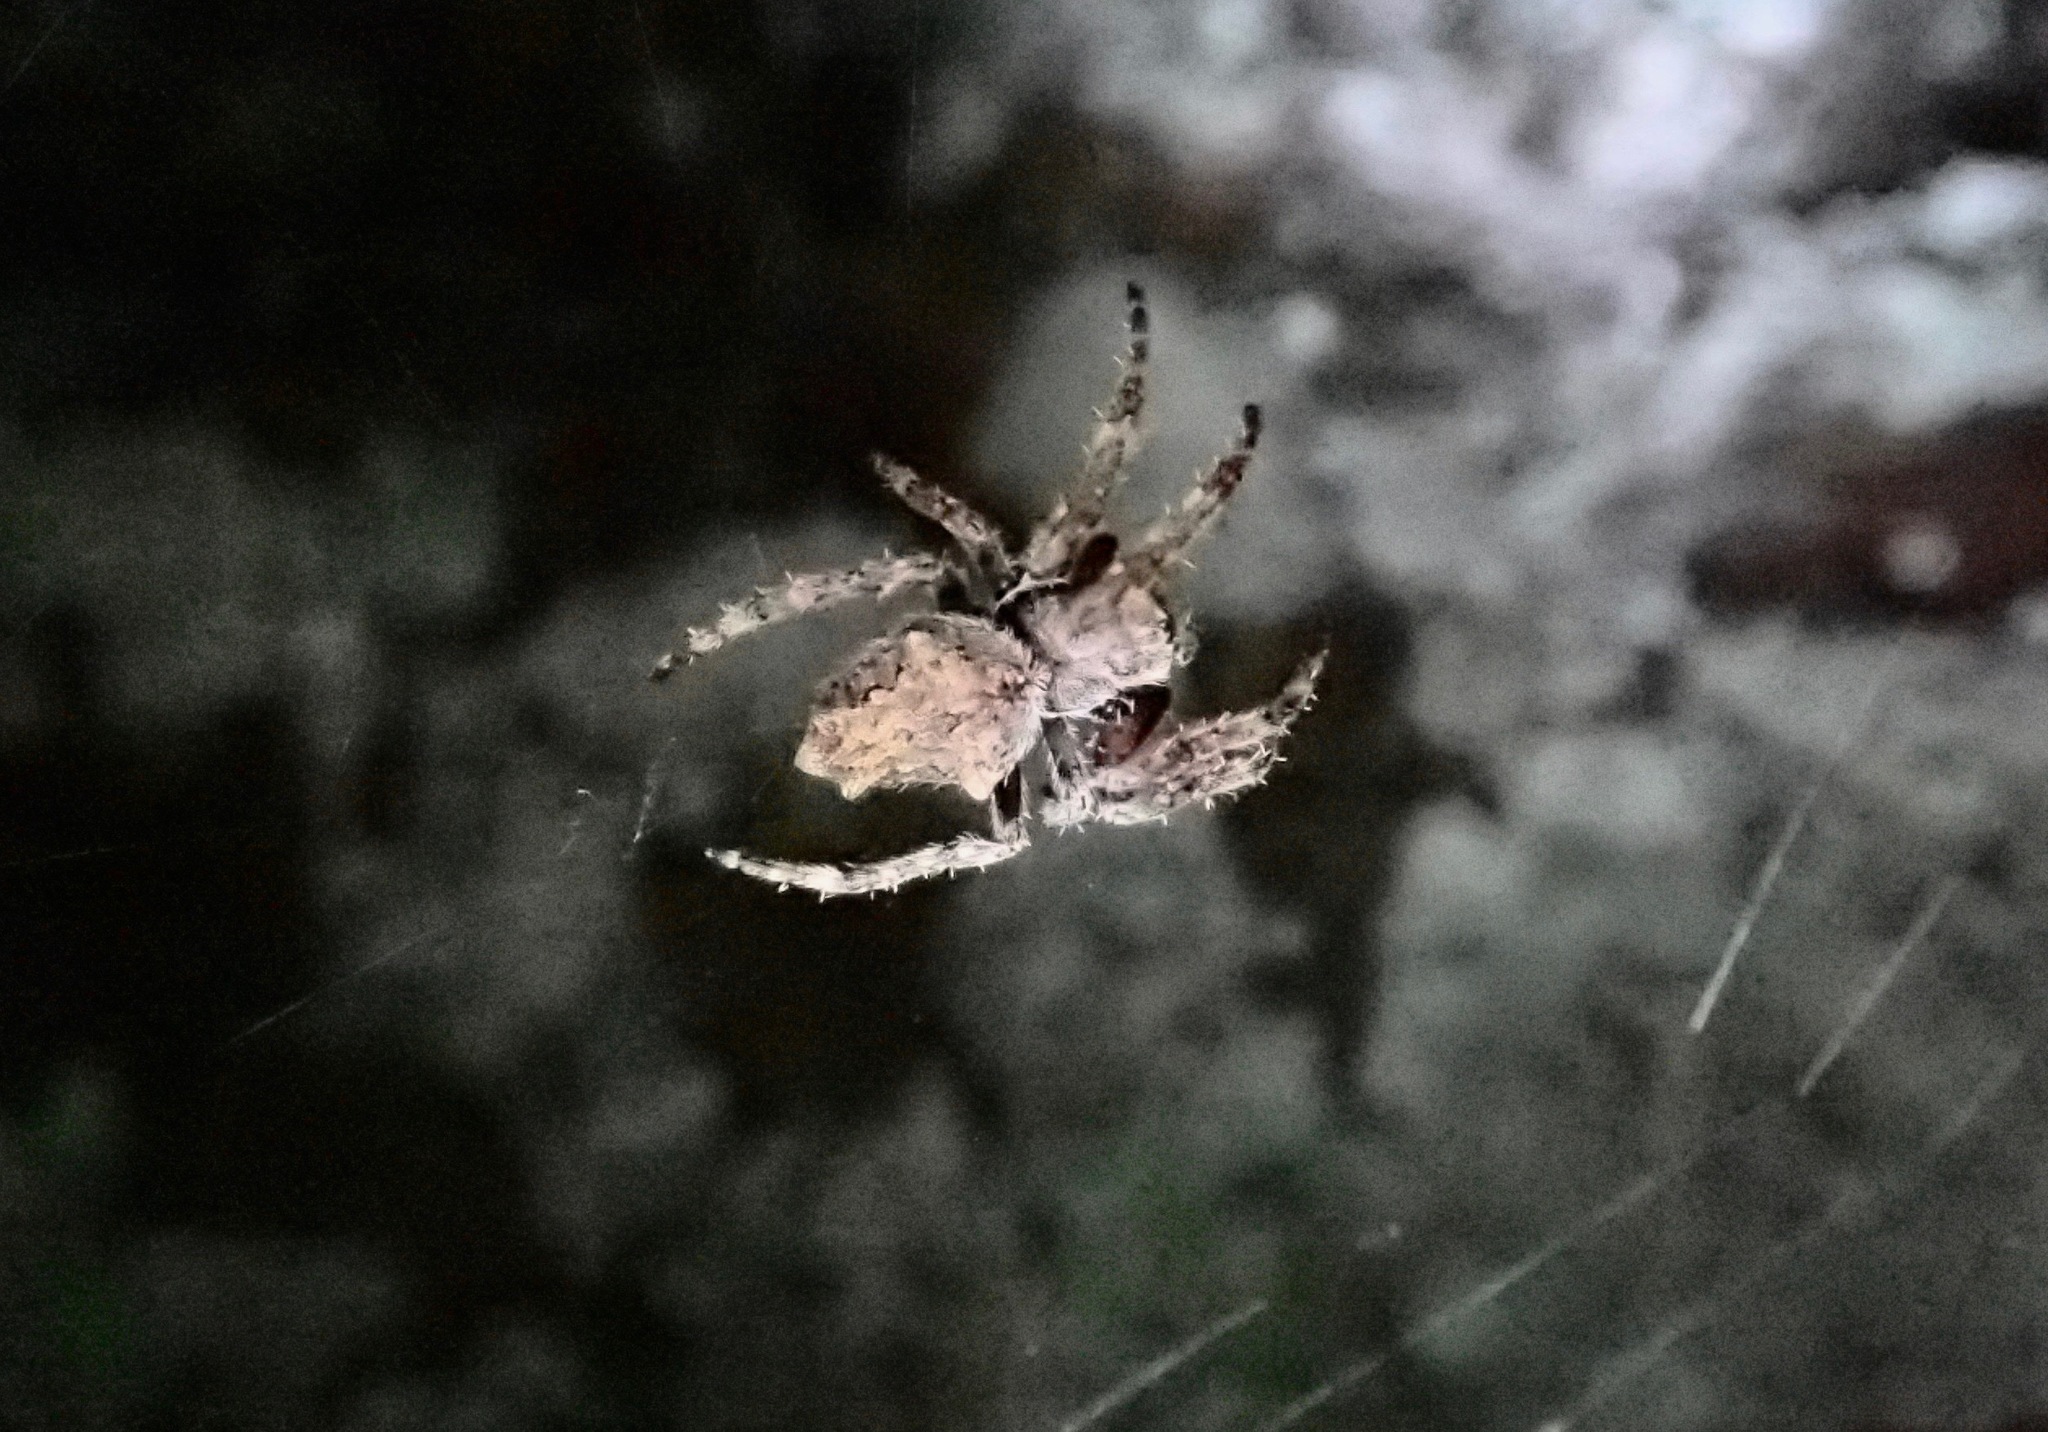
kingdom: Animalia
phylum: Arthropoda
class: Arachnida
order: Araneae
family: Araneidae
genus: Eriophora
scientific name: Eriophora pustulosa
